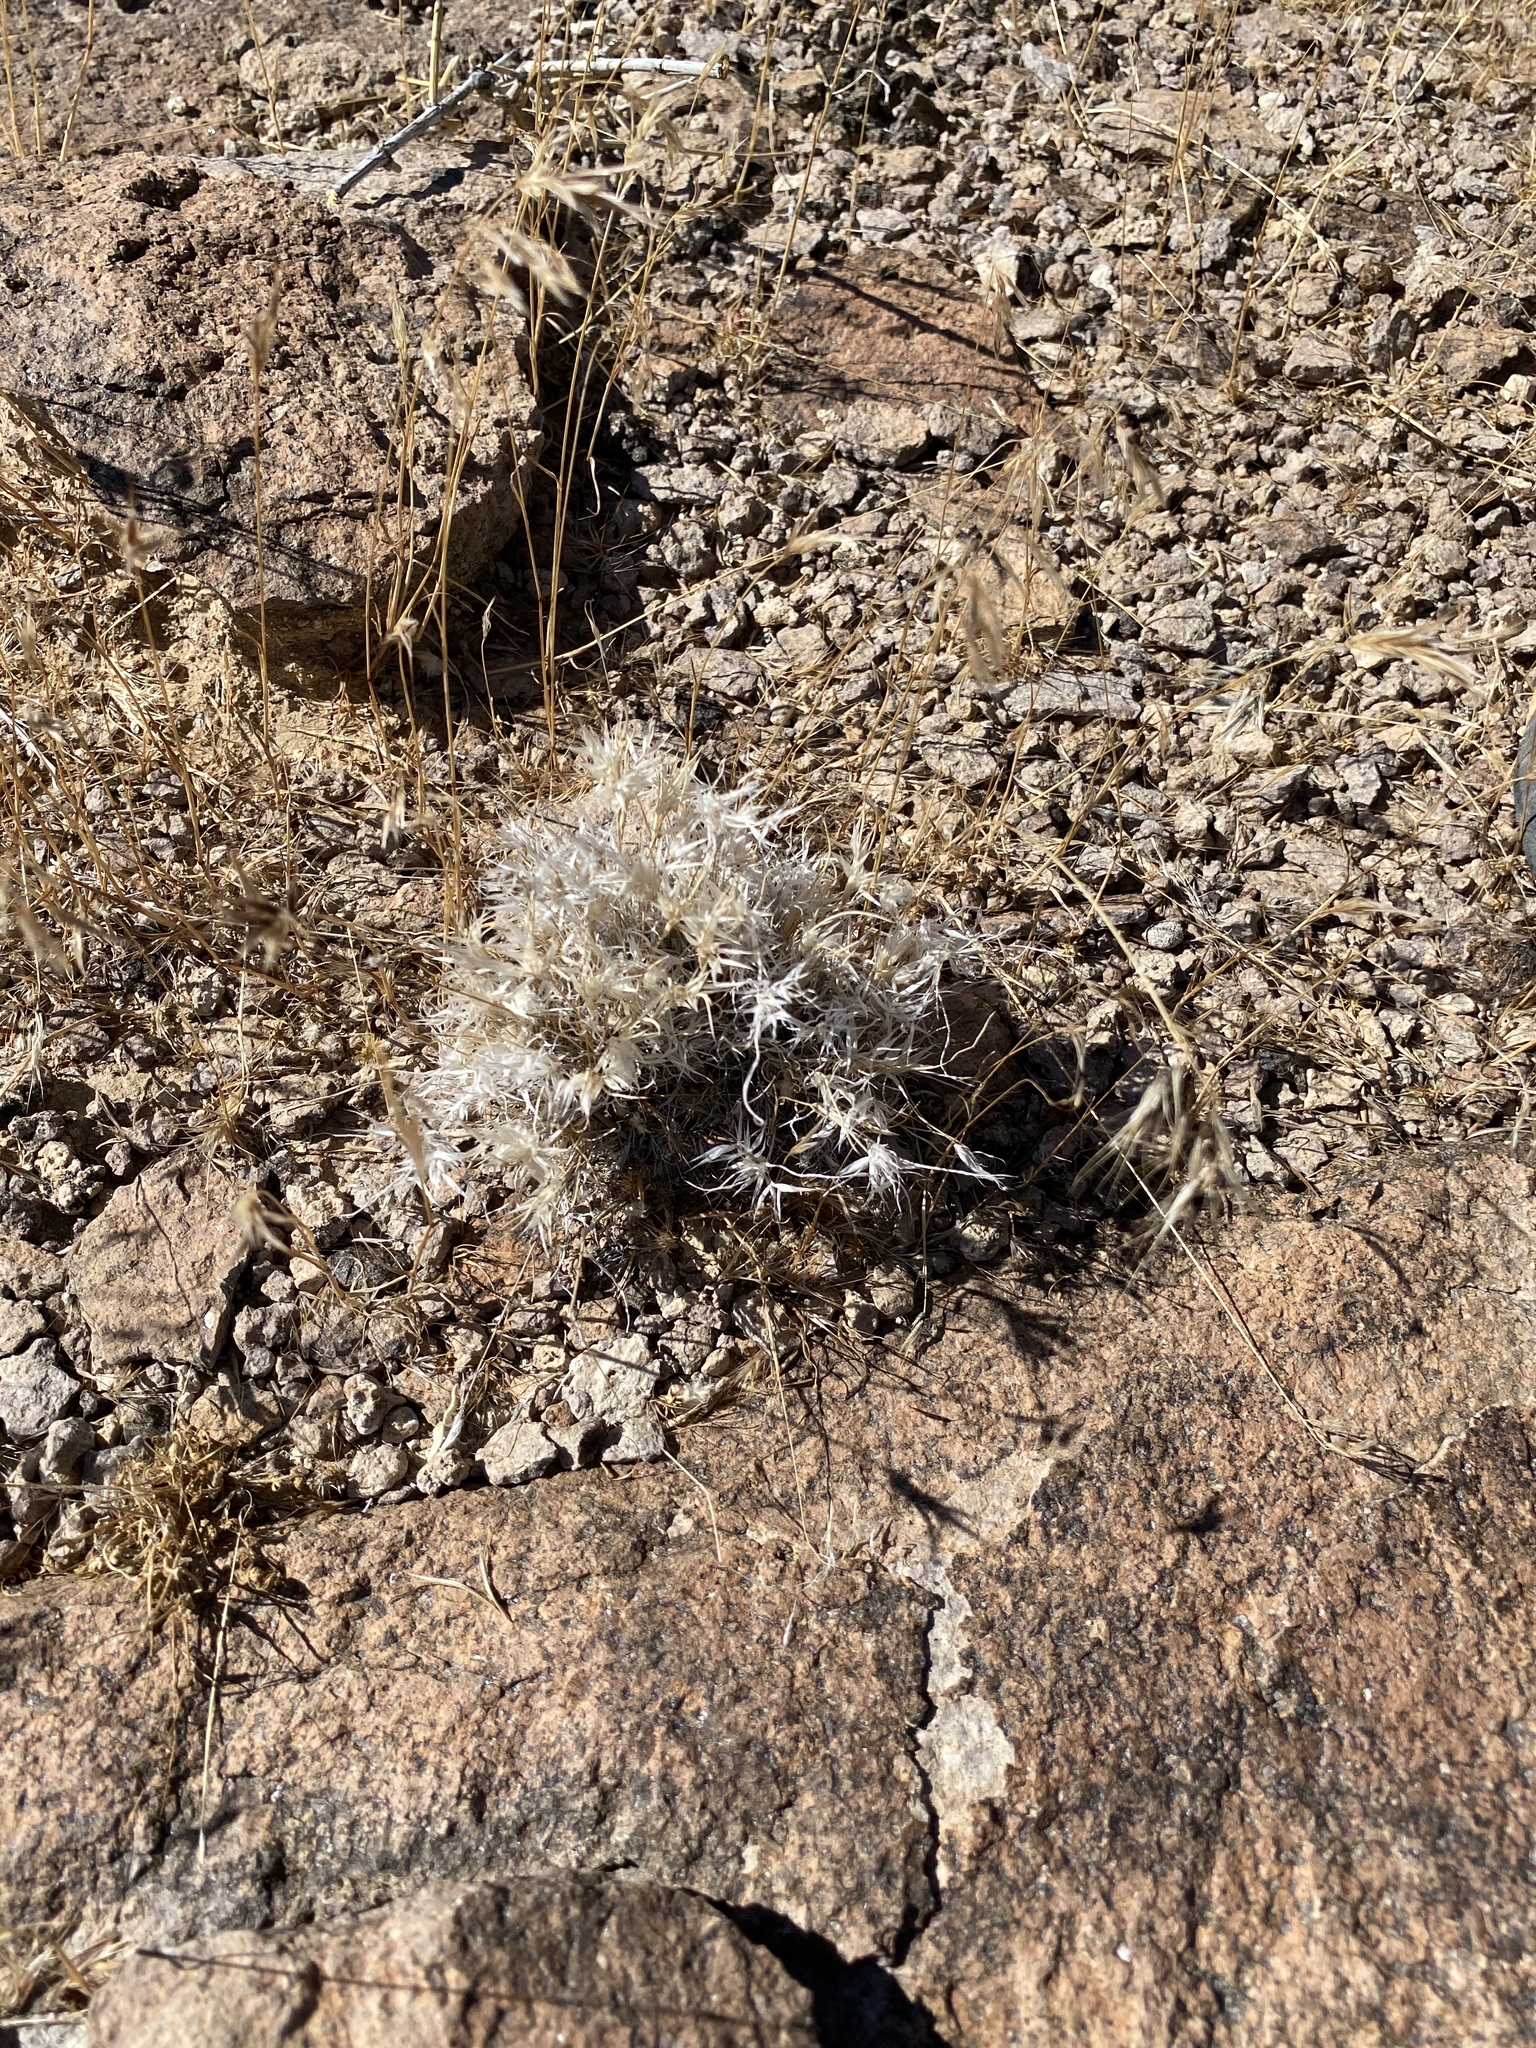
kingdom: Plantae
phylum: Tracheophyta
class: Liliopsida
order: Poales
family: Poaceae
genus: Dasyochloa
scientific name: Dasyochloa pulchella
